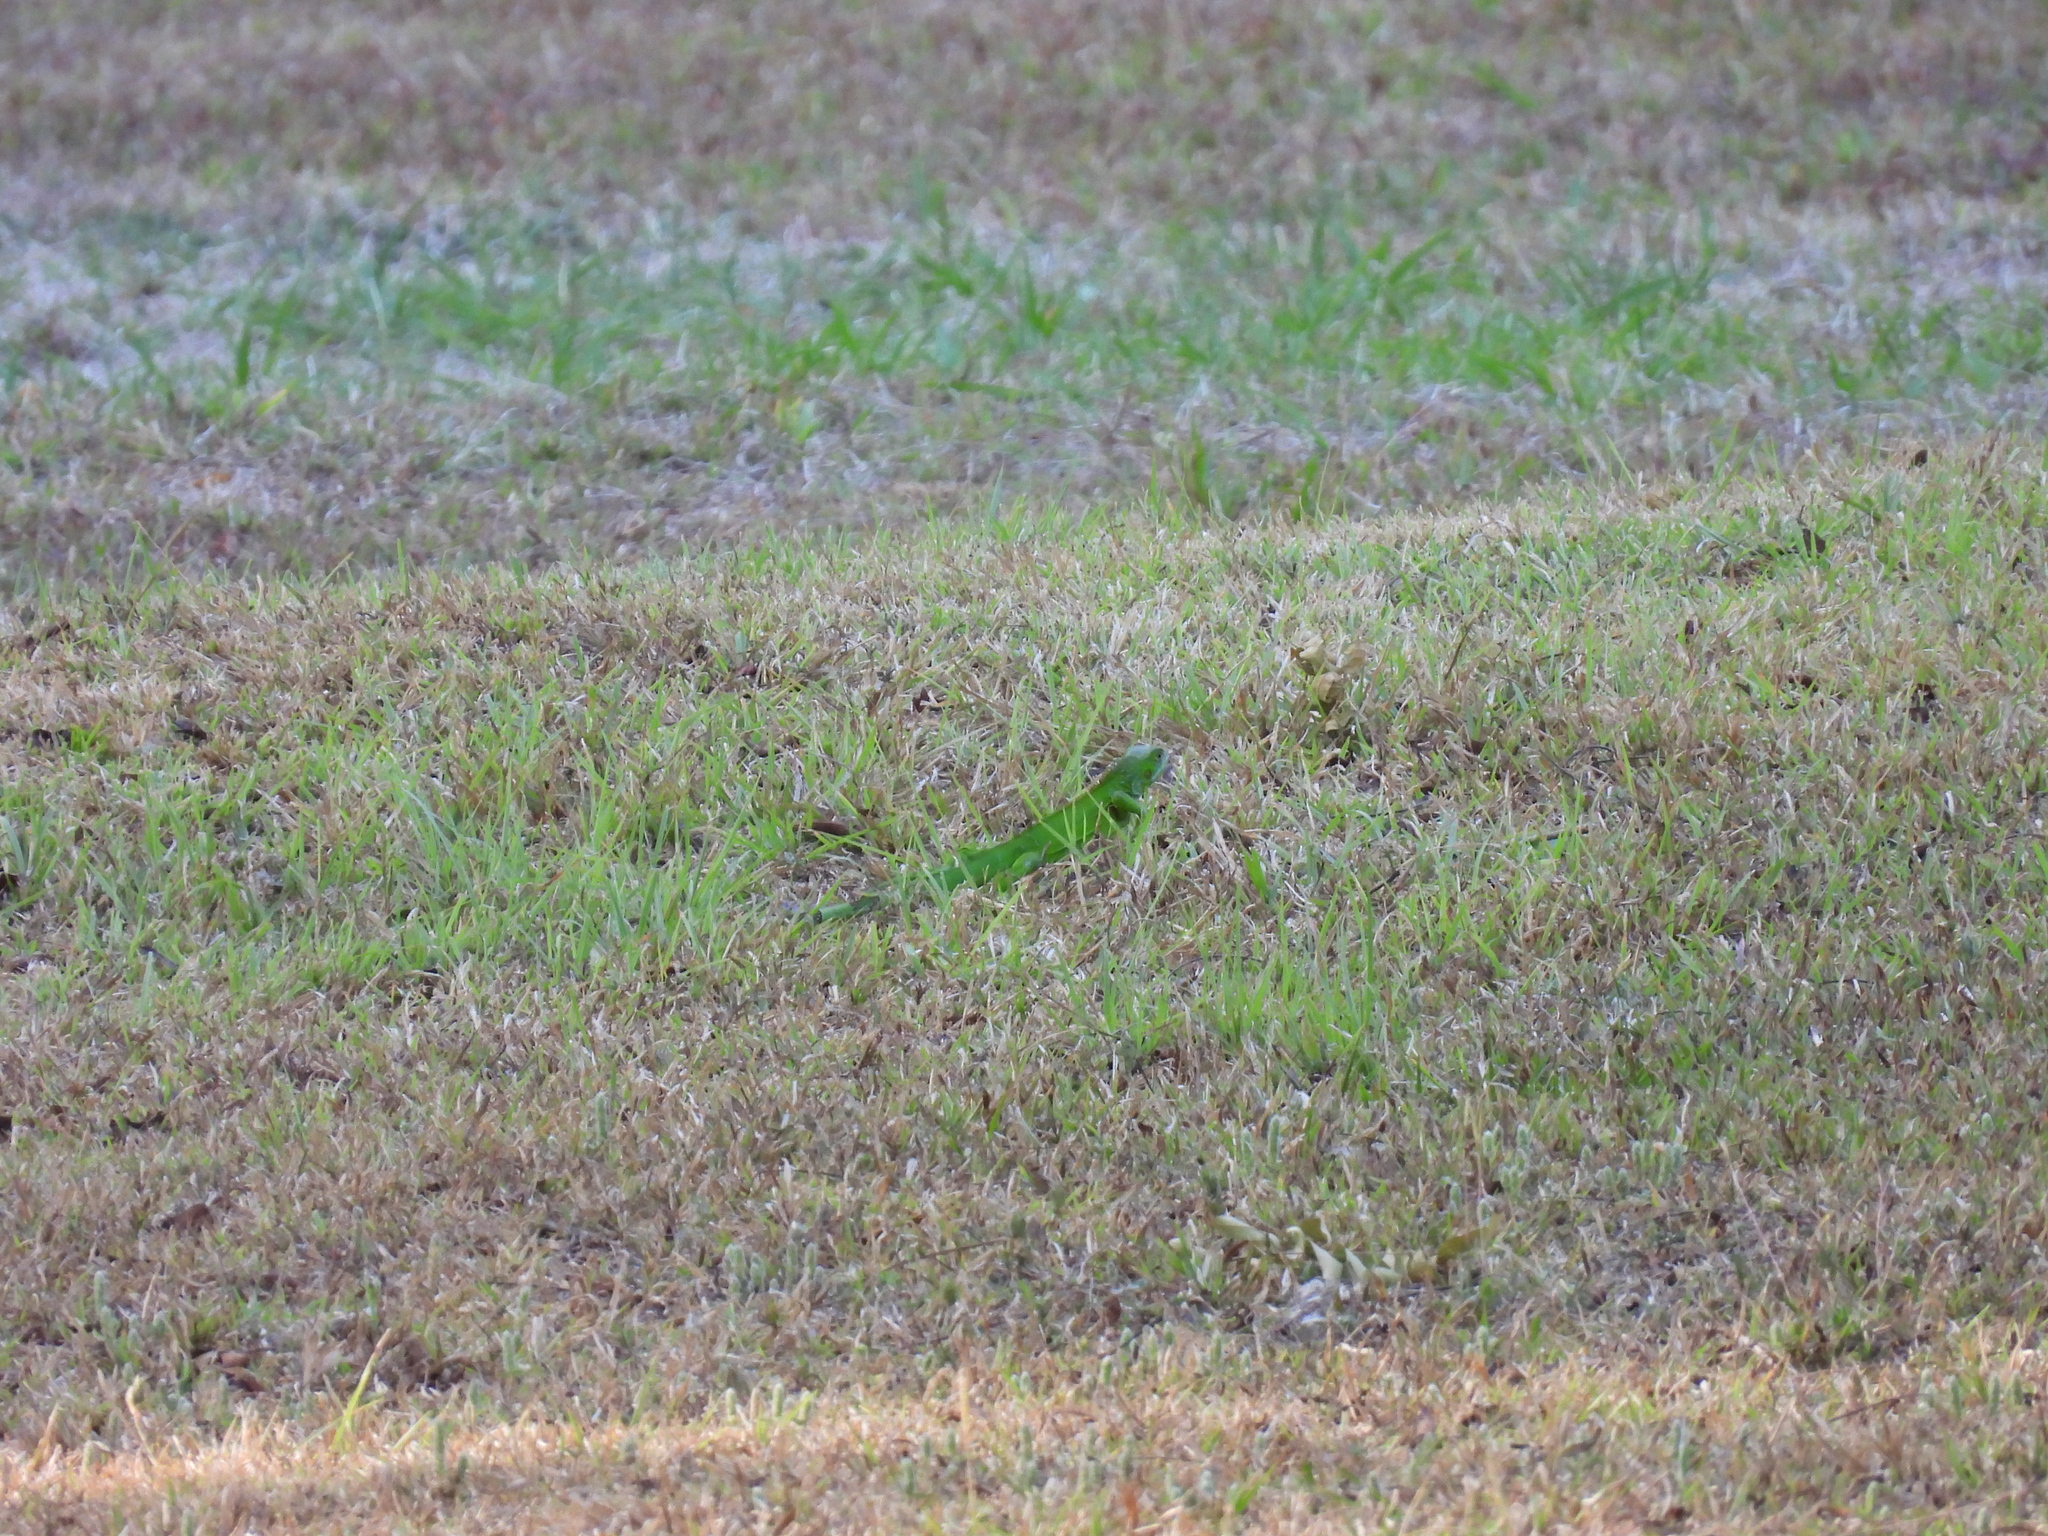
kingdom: Animalia
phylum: Chordata
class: Squamata
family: Iguanidae
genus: Iguana
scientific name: Iguana iguana
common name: Green iguana
